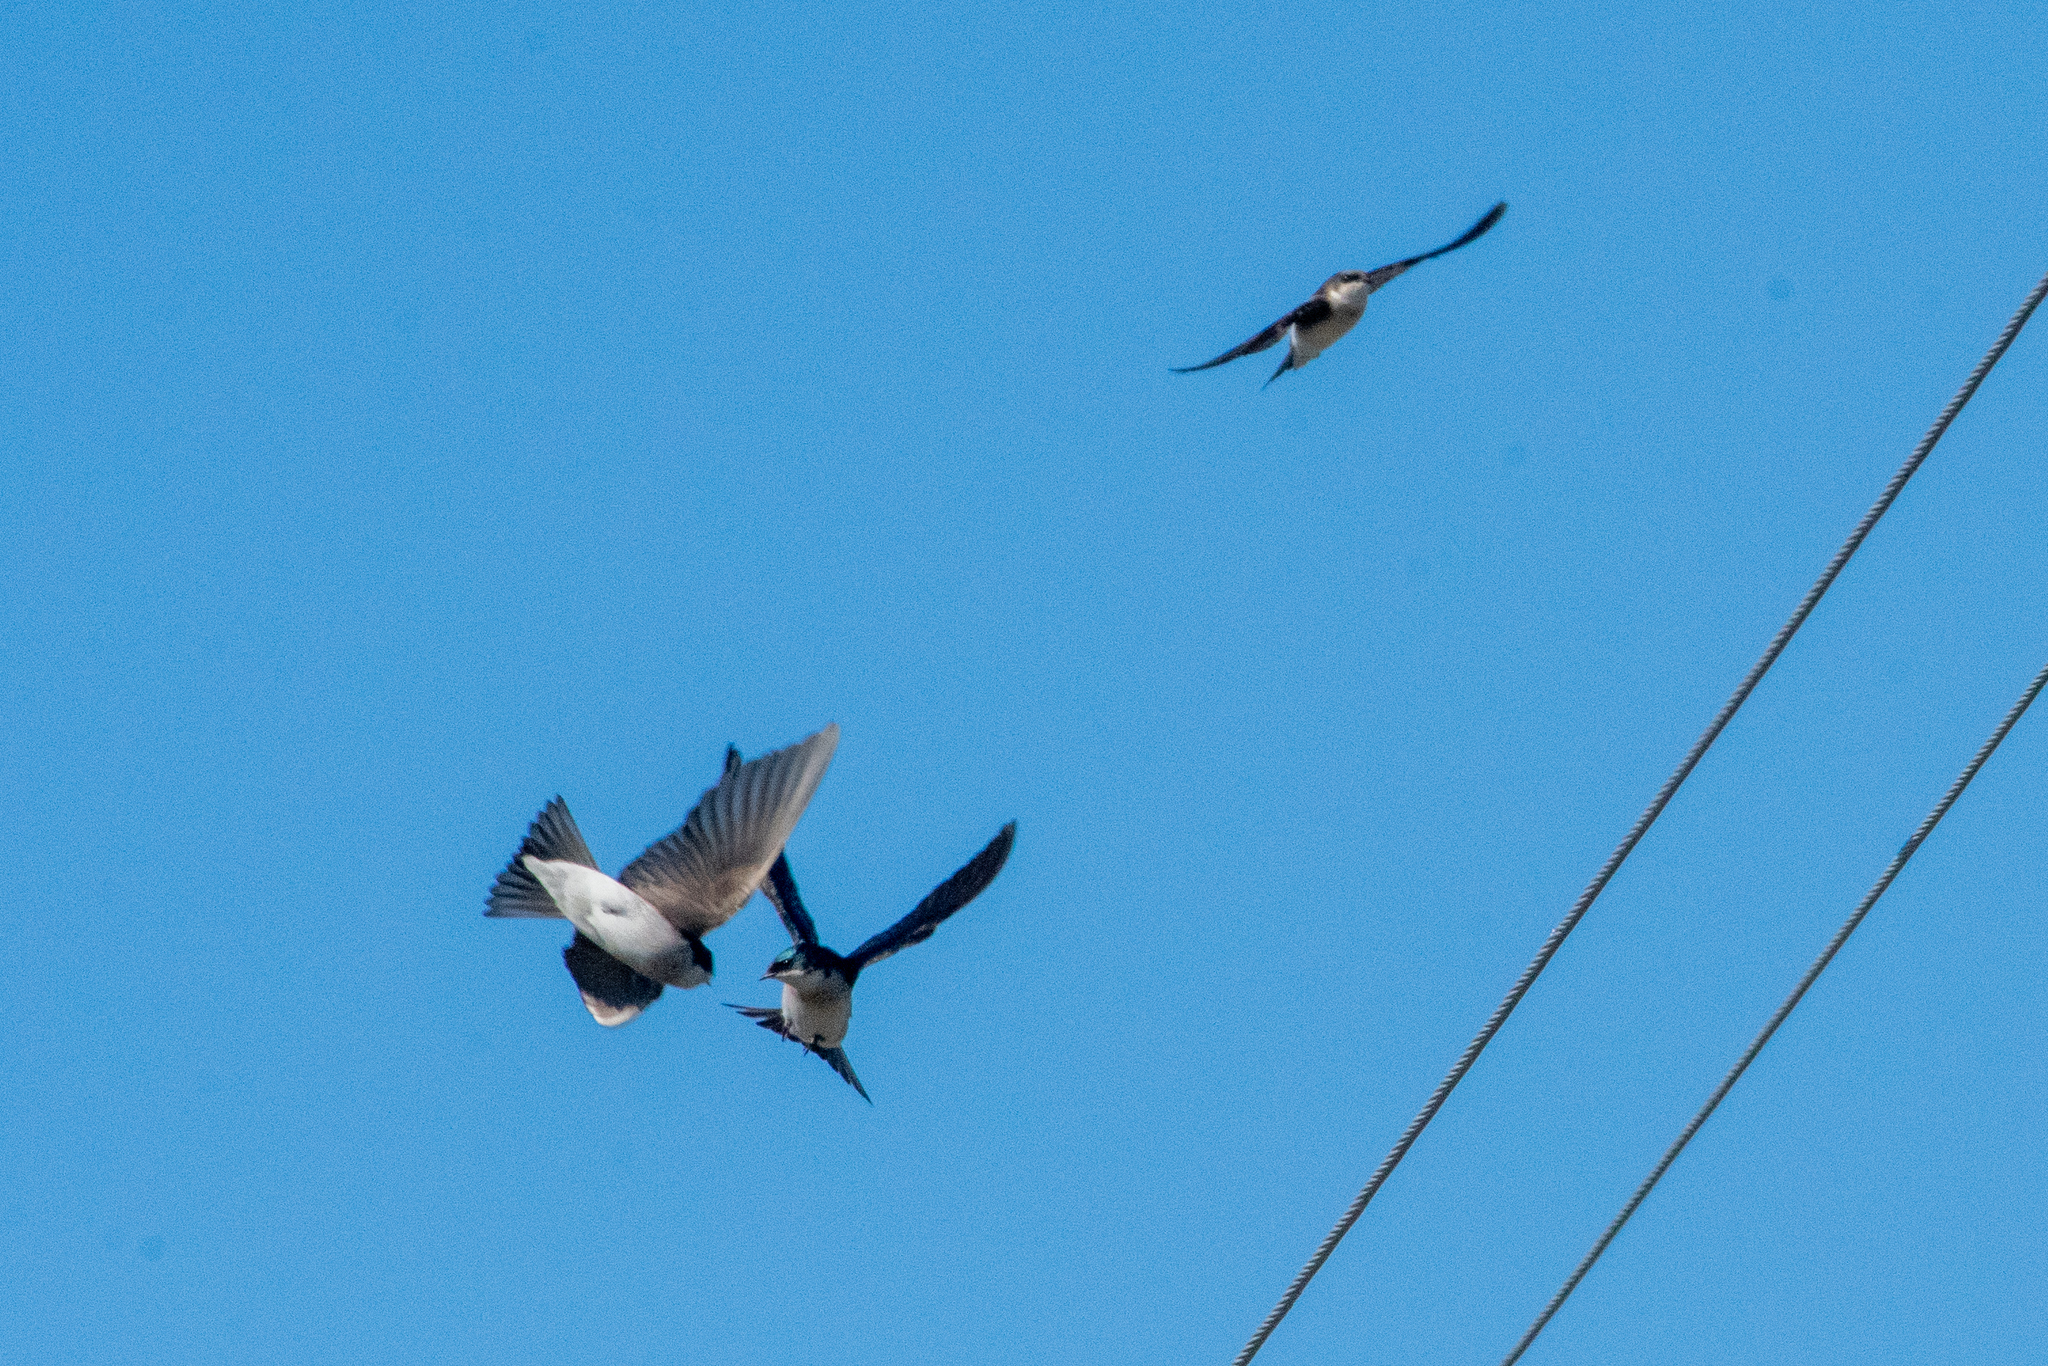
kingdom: Animalia
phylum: Chordata
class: Aves
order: Passeriformes
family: Hirundinidae
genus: Tachycineta
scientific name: Tachycineta bicolor
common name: Tree swallow
